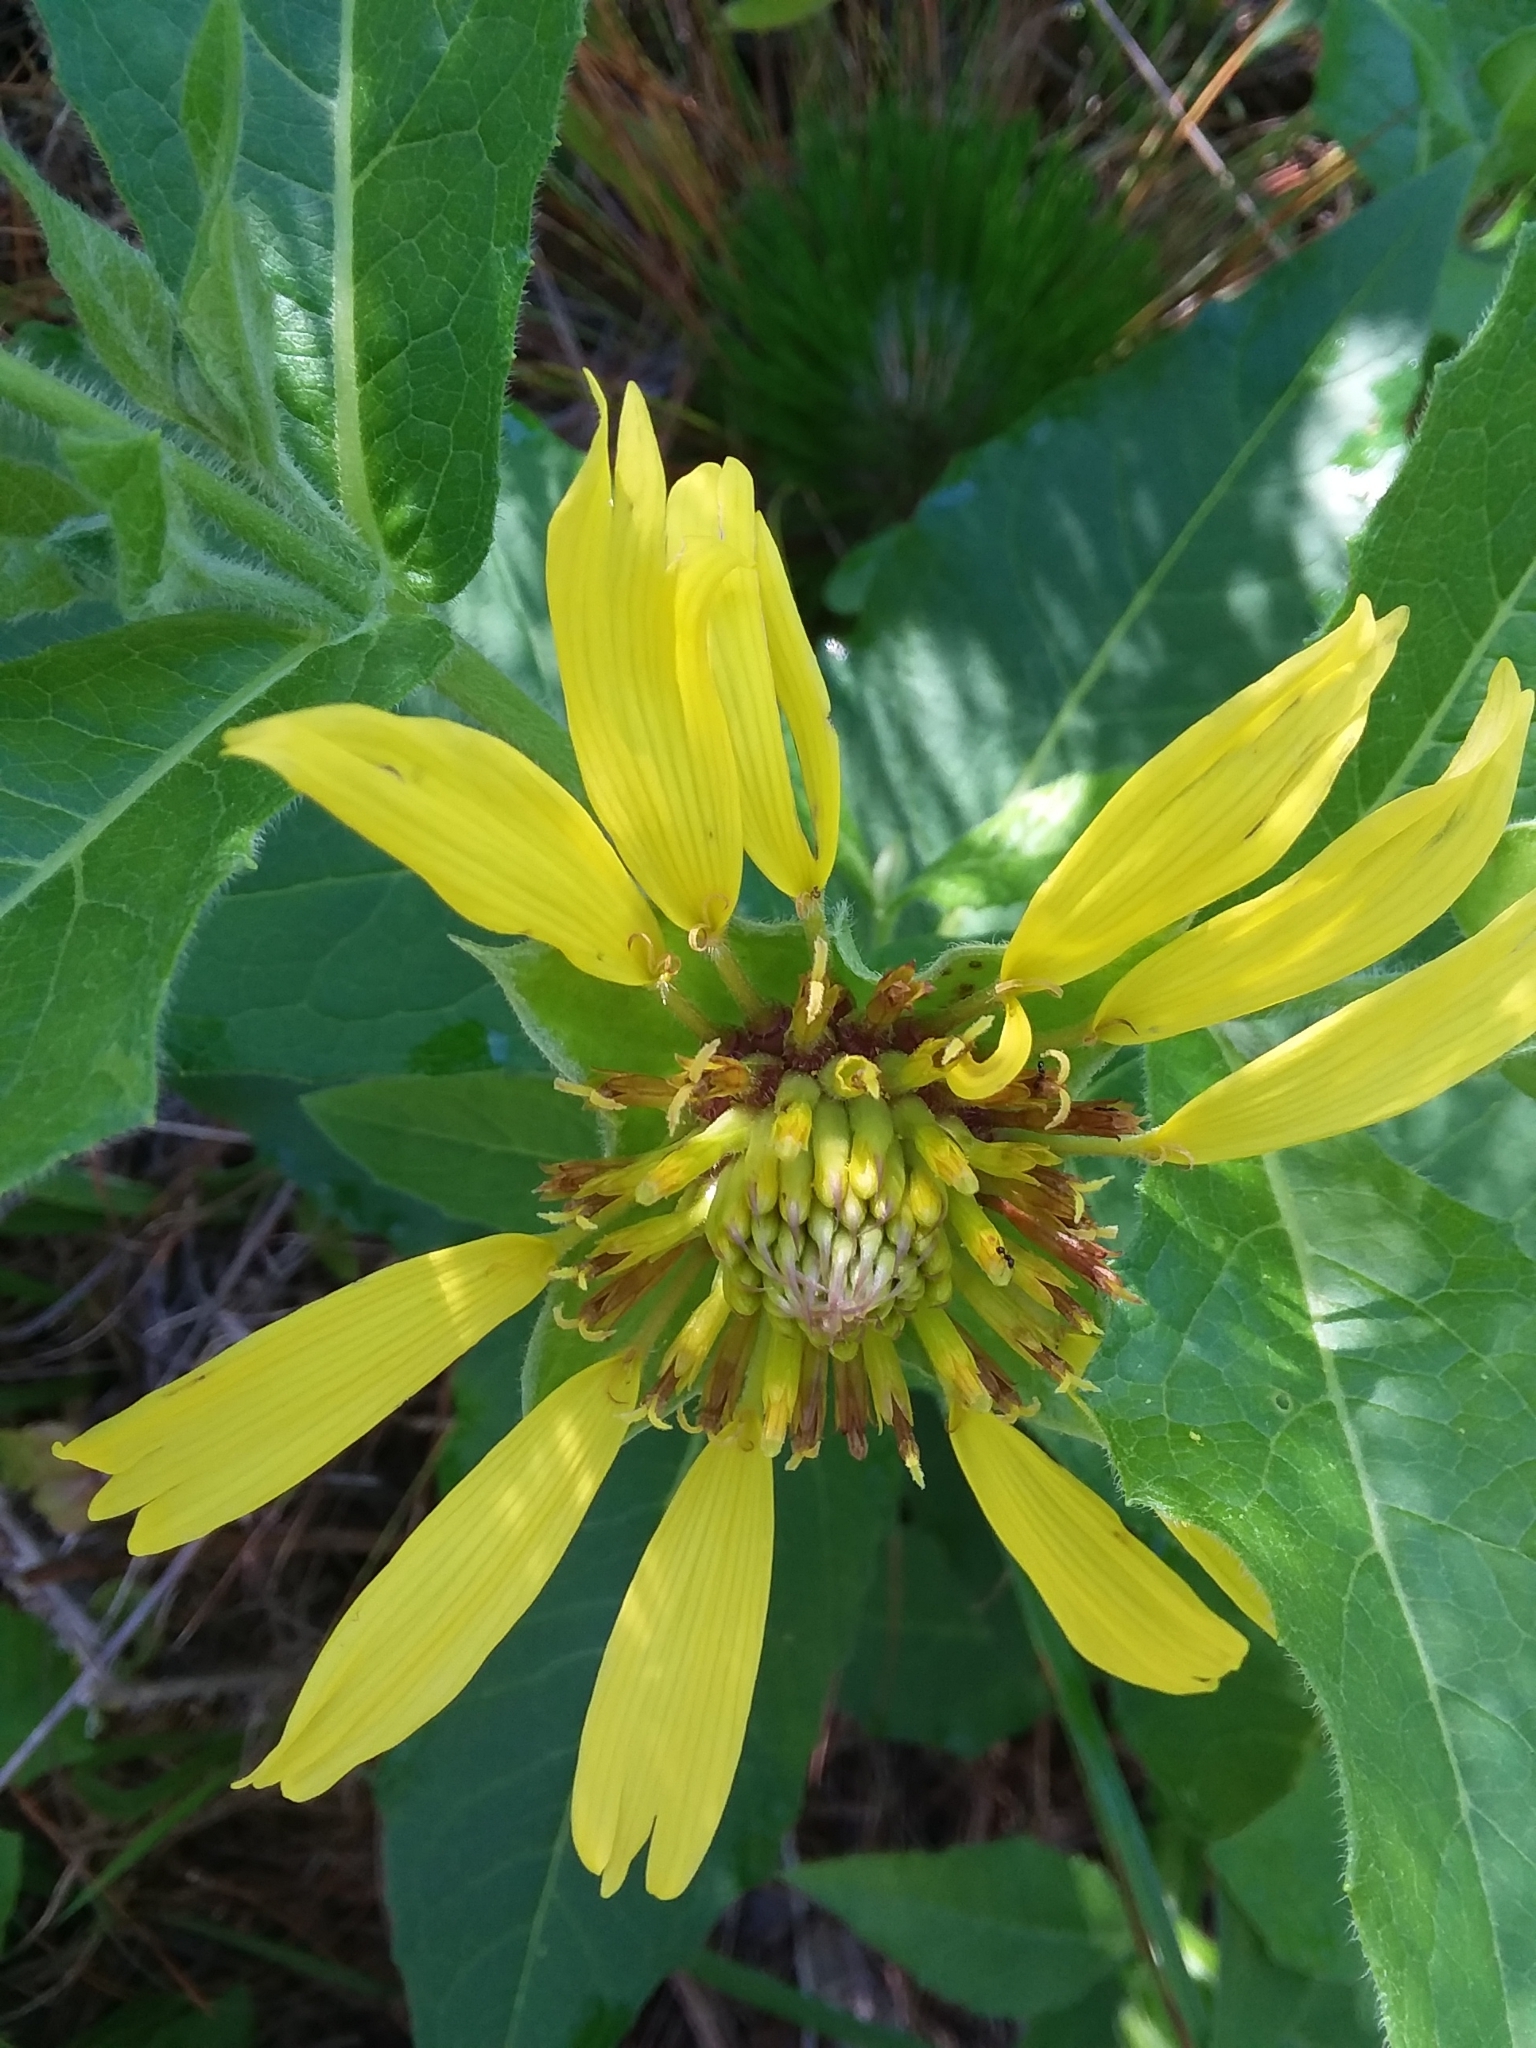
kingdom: Plantae
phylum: Tracheophyta
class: Magnoliopsida
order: Asterales
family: Asteraceae
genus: Tetragonotheca
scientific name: Tetragonotheca helianthoides
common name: Pineland-ginseng
